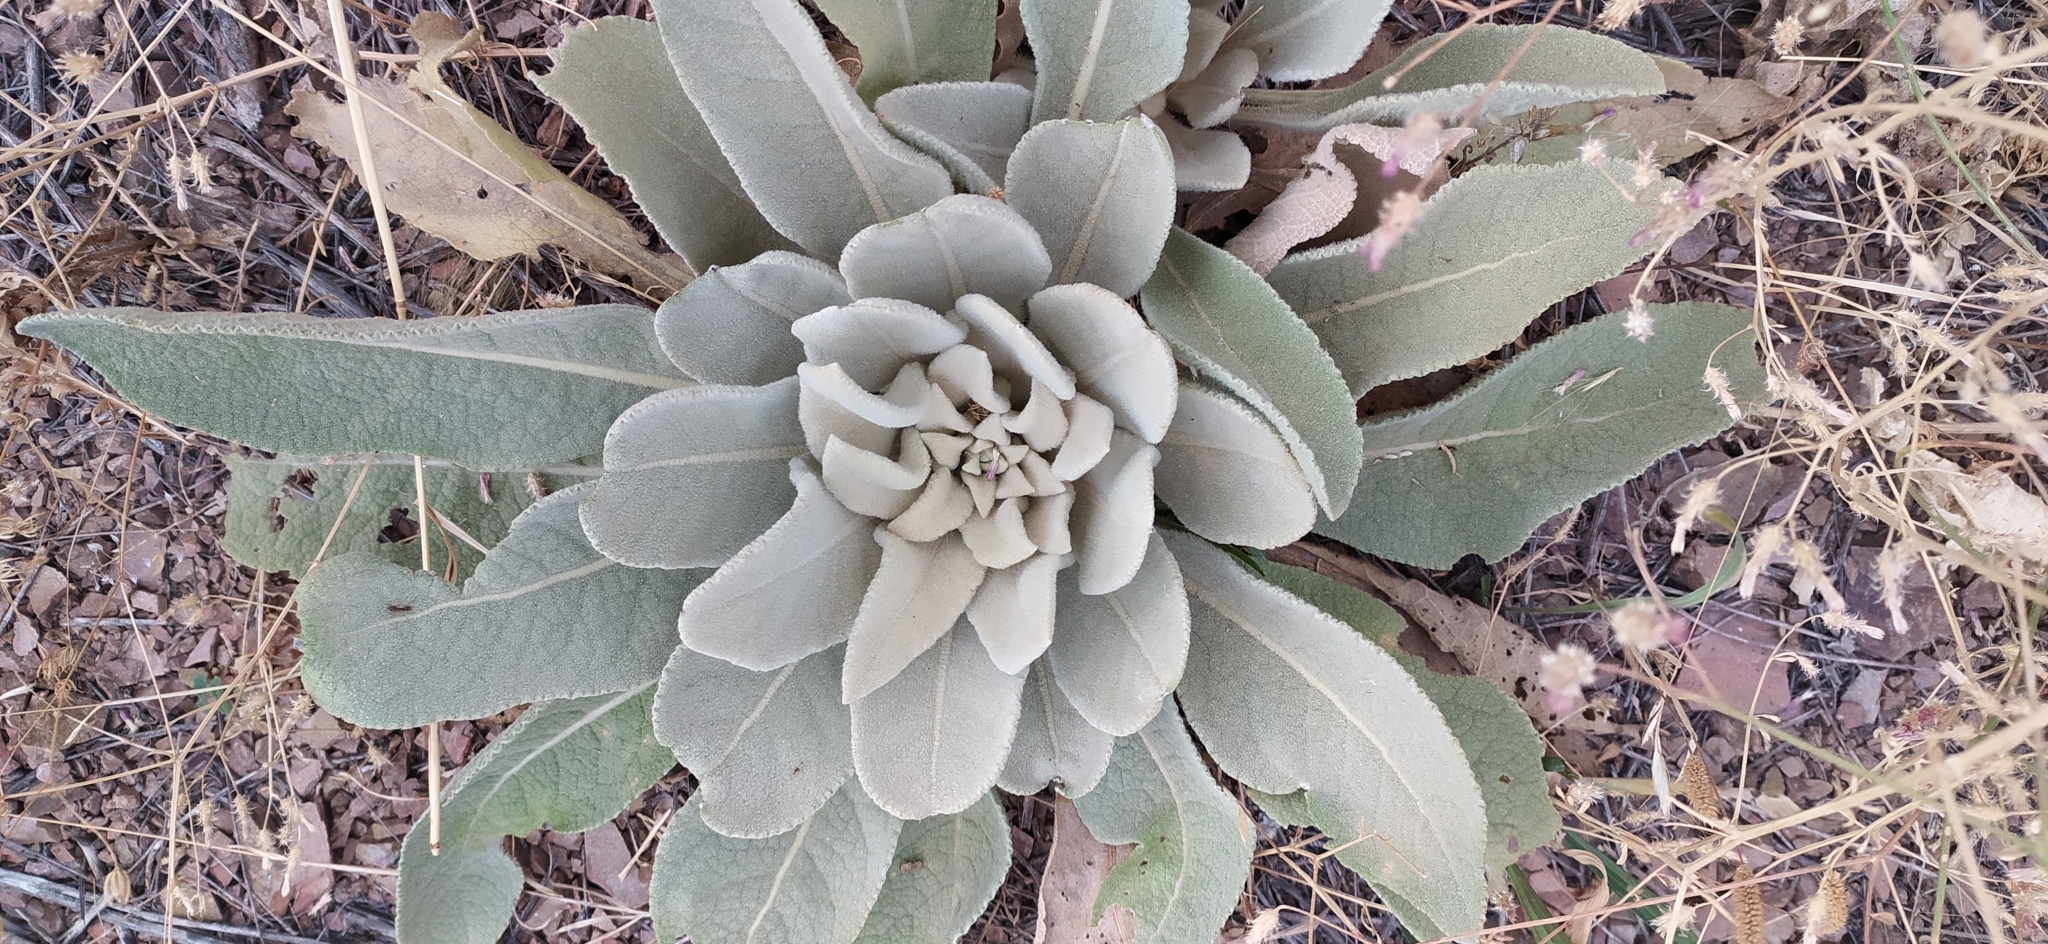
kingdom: Plantae
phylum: Tracheophyta
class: Magnoliopsida
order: Lamiales
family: Scrophulariaceae
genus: Verbascum
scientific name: Verbascum songaricum
